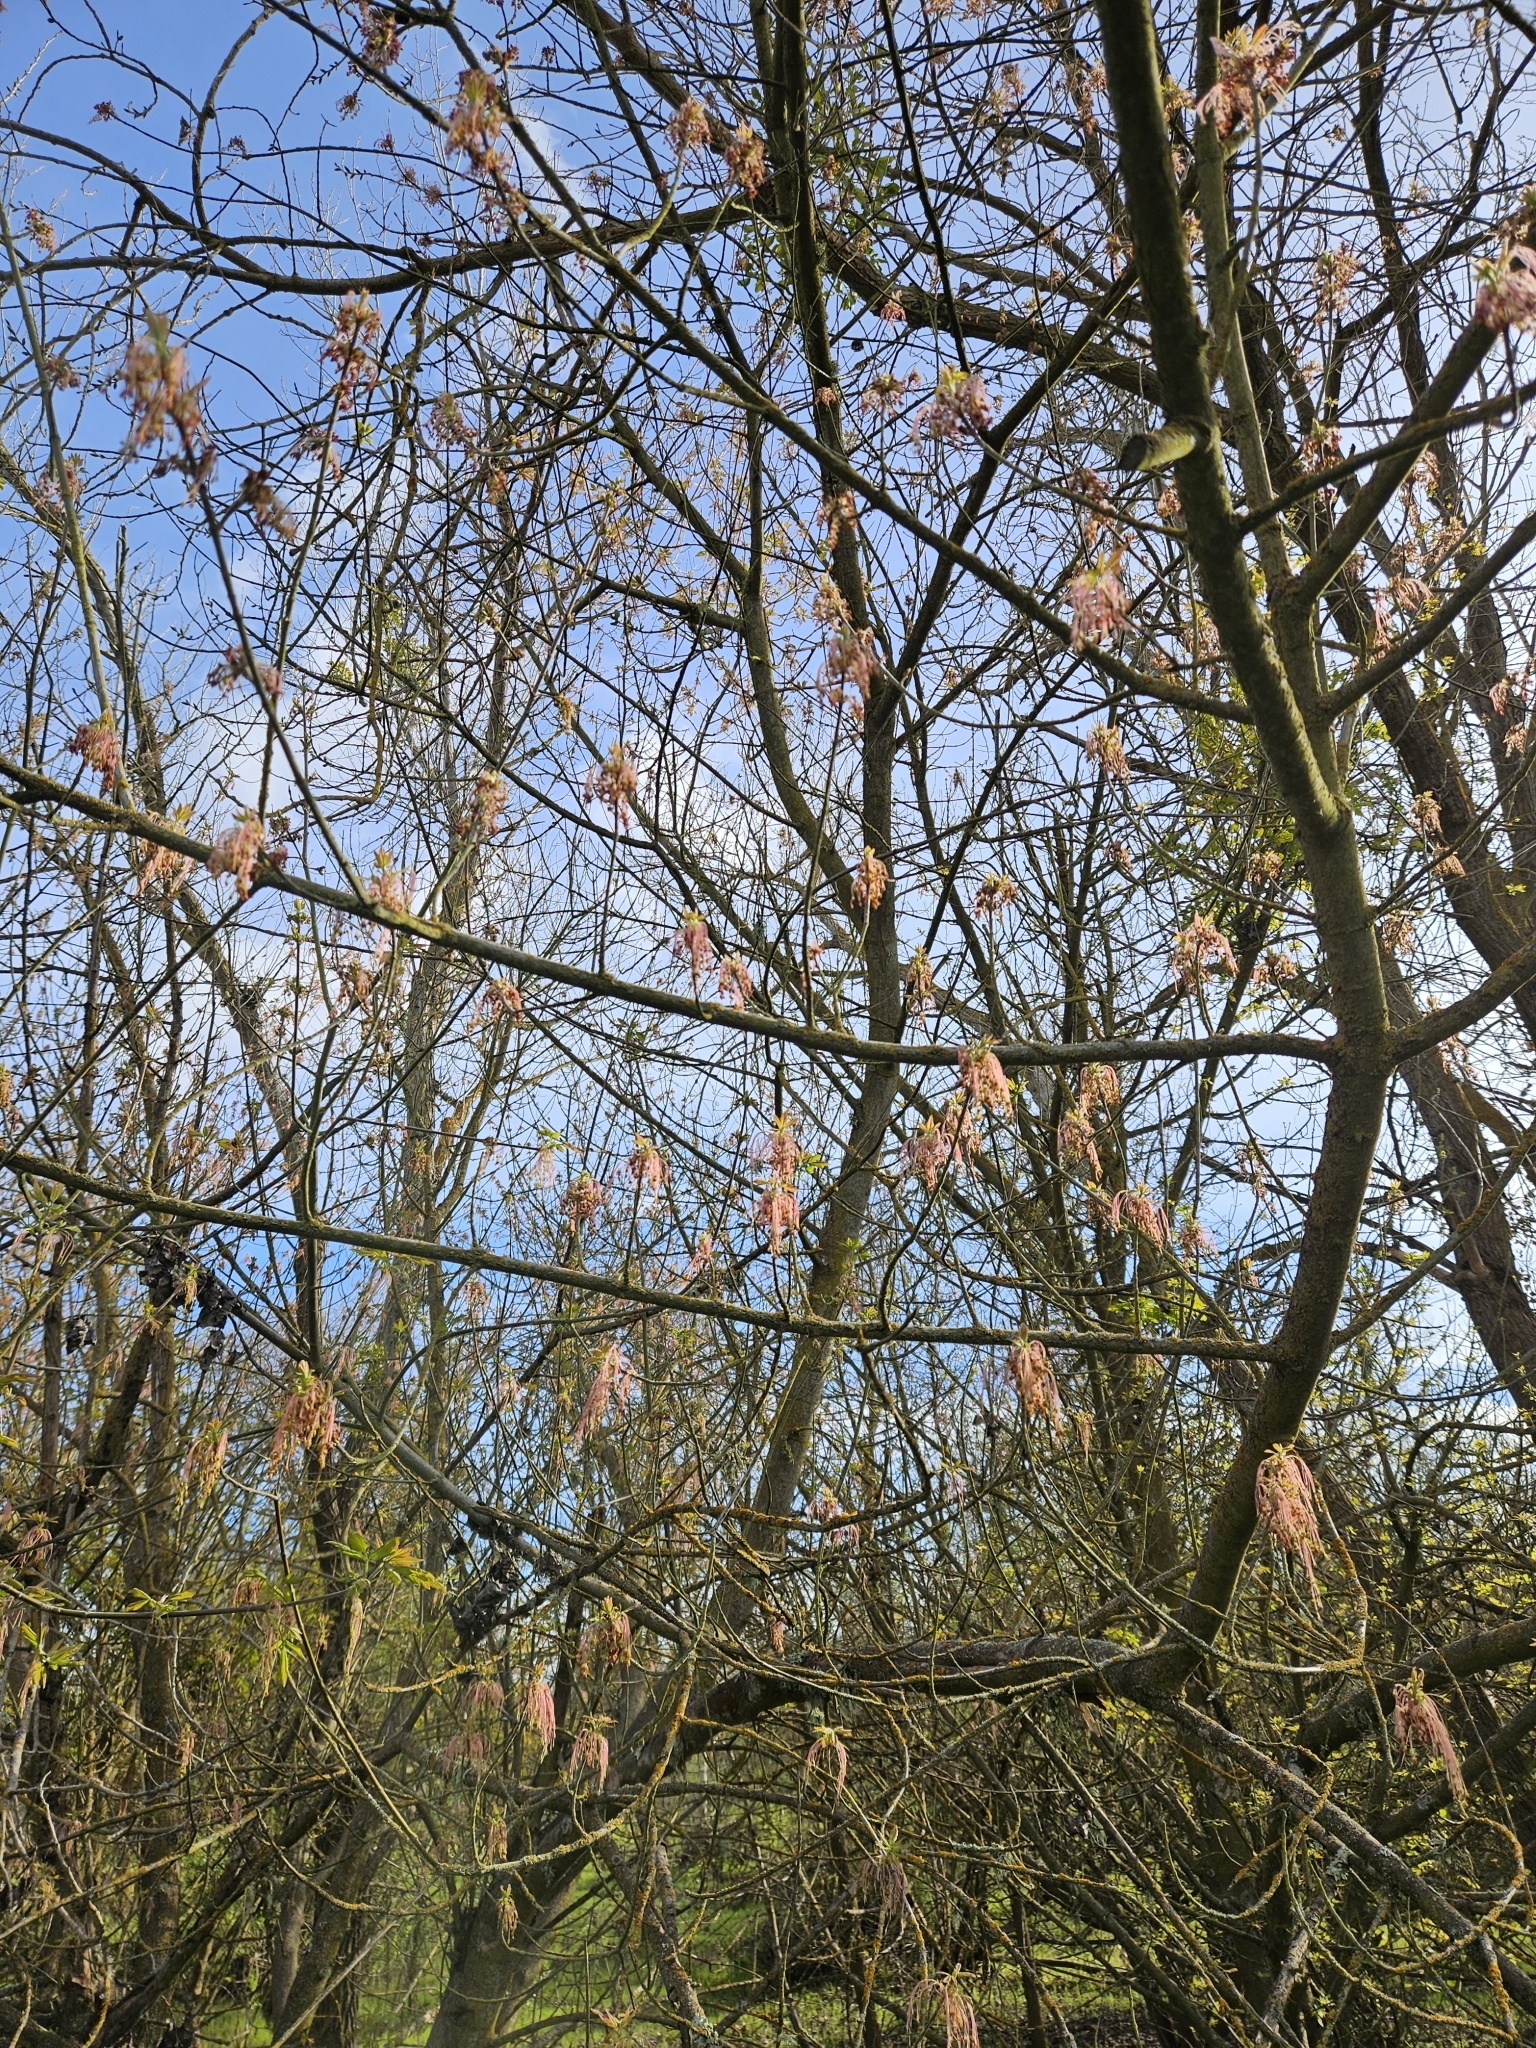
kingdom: Plantae
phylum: Tracheophyta
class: Magnoliopsida
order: Sapindales
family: Sapindaceae
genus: Acer
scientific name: Acer negundo
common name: Ashleaf maple
